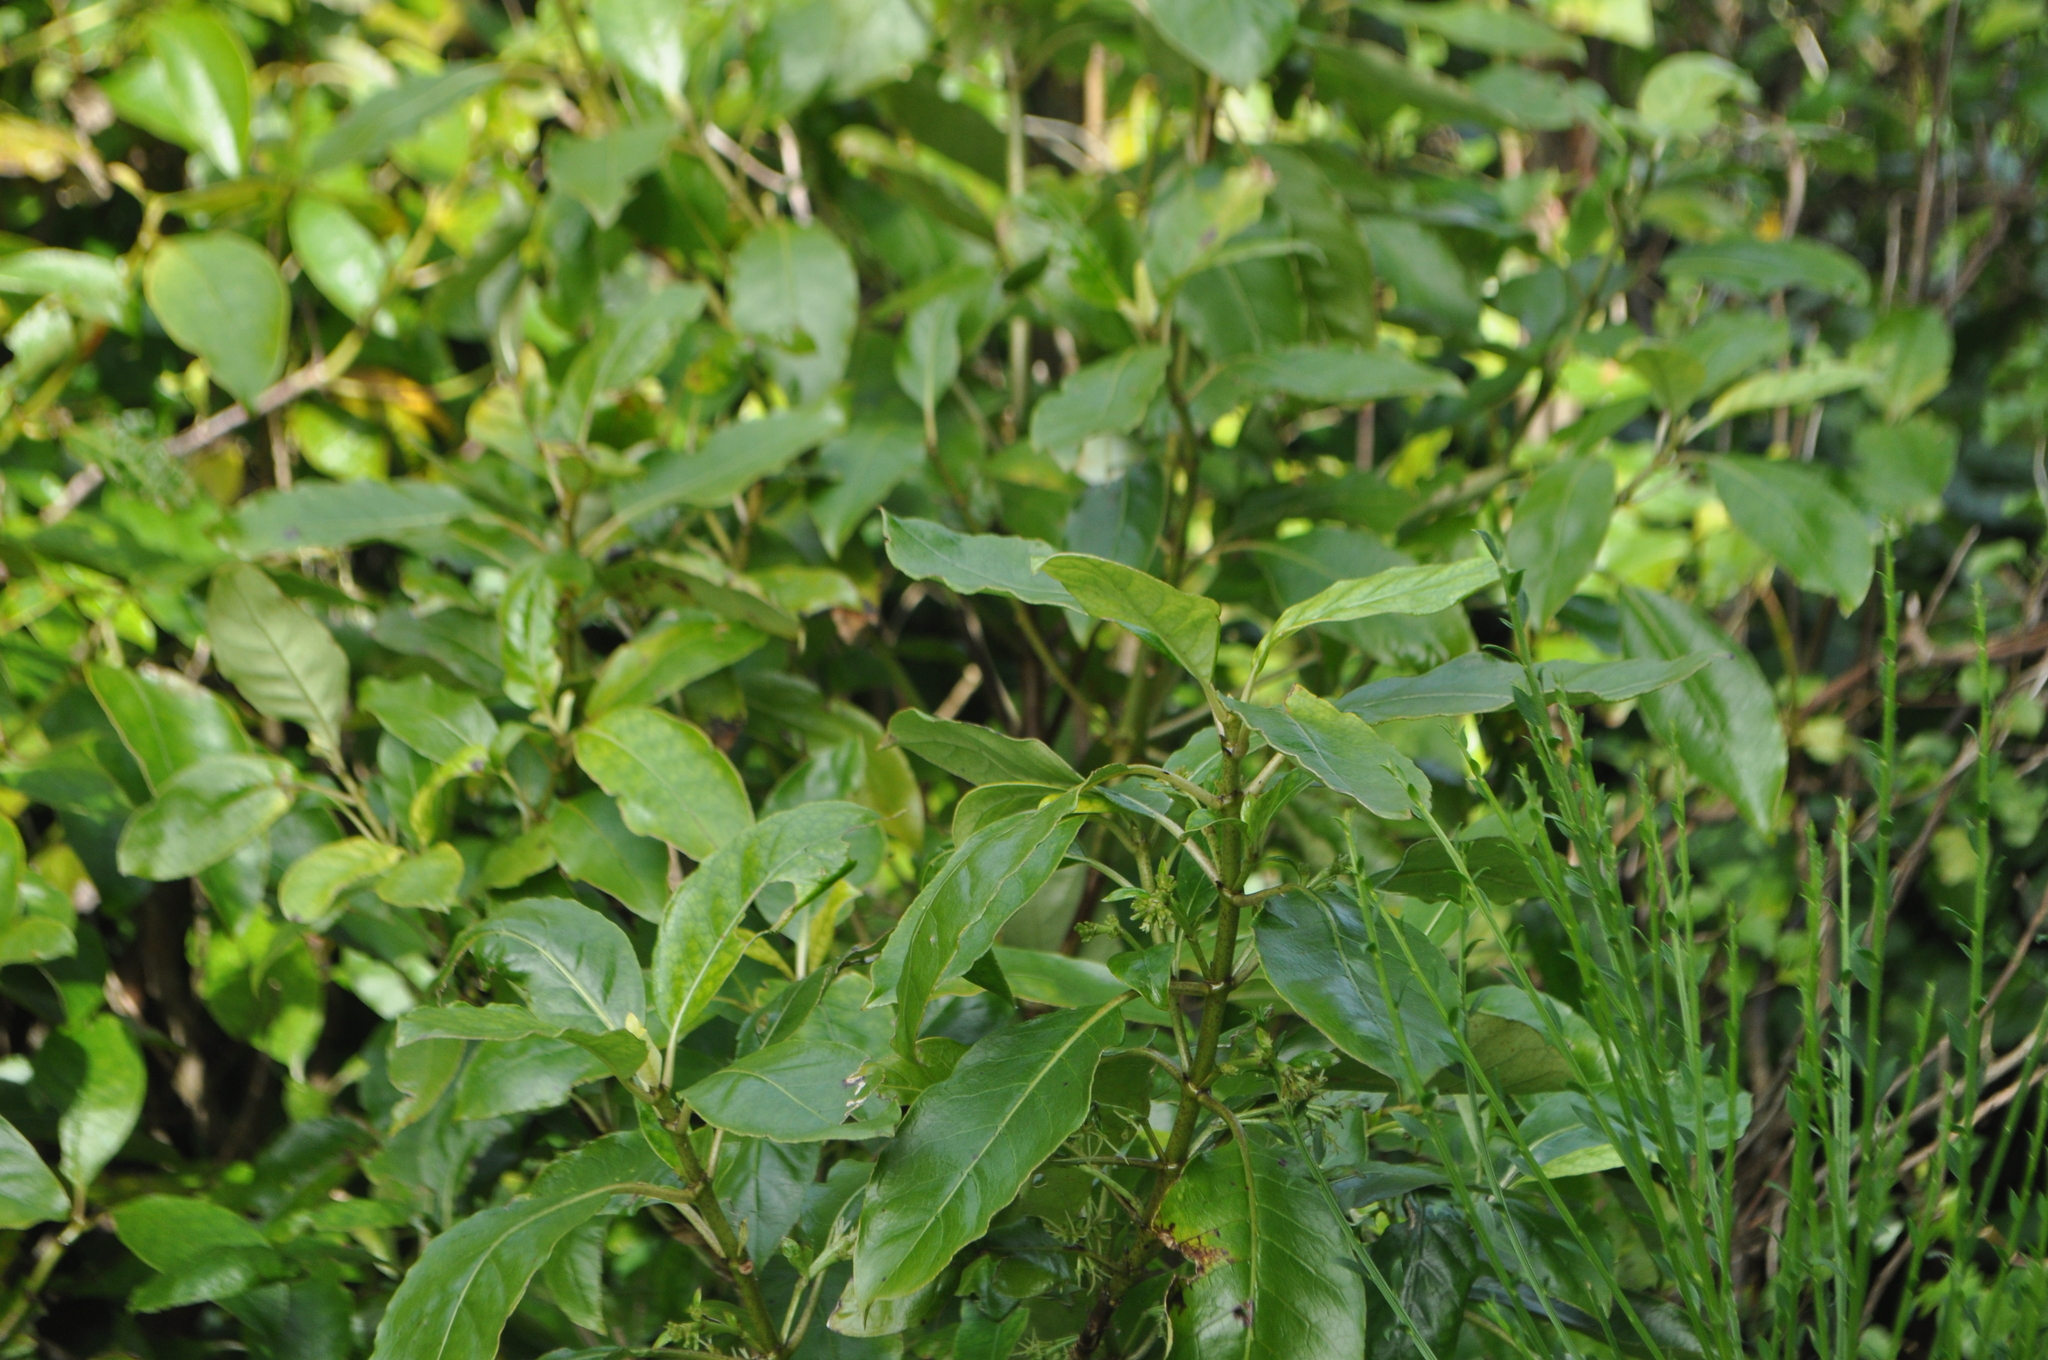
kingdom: Plantae
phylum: Tracheophyta
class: Magnoliopsida
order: Malpighiales
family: Violaceae
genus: Melicytus
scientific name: Melicytus ramiflorus
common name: Mahoe
